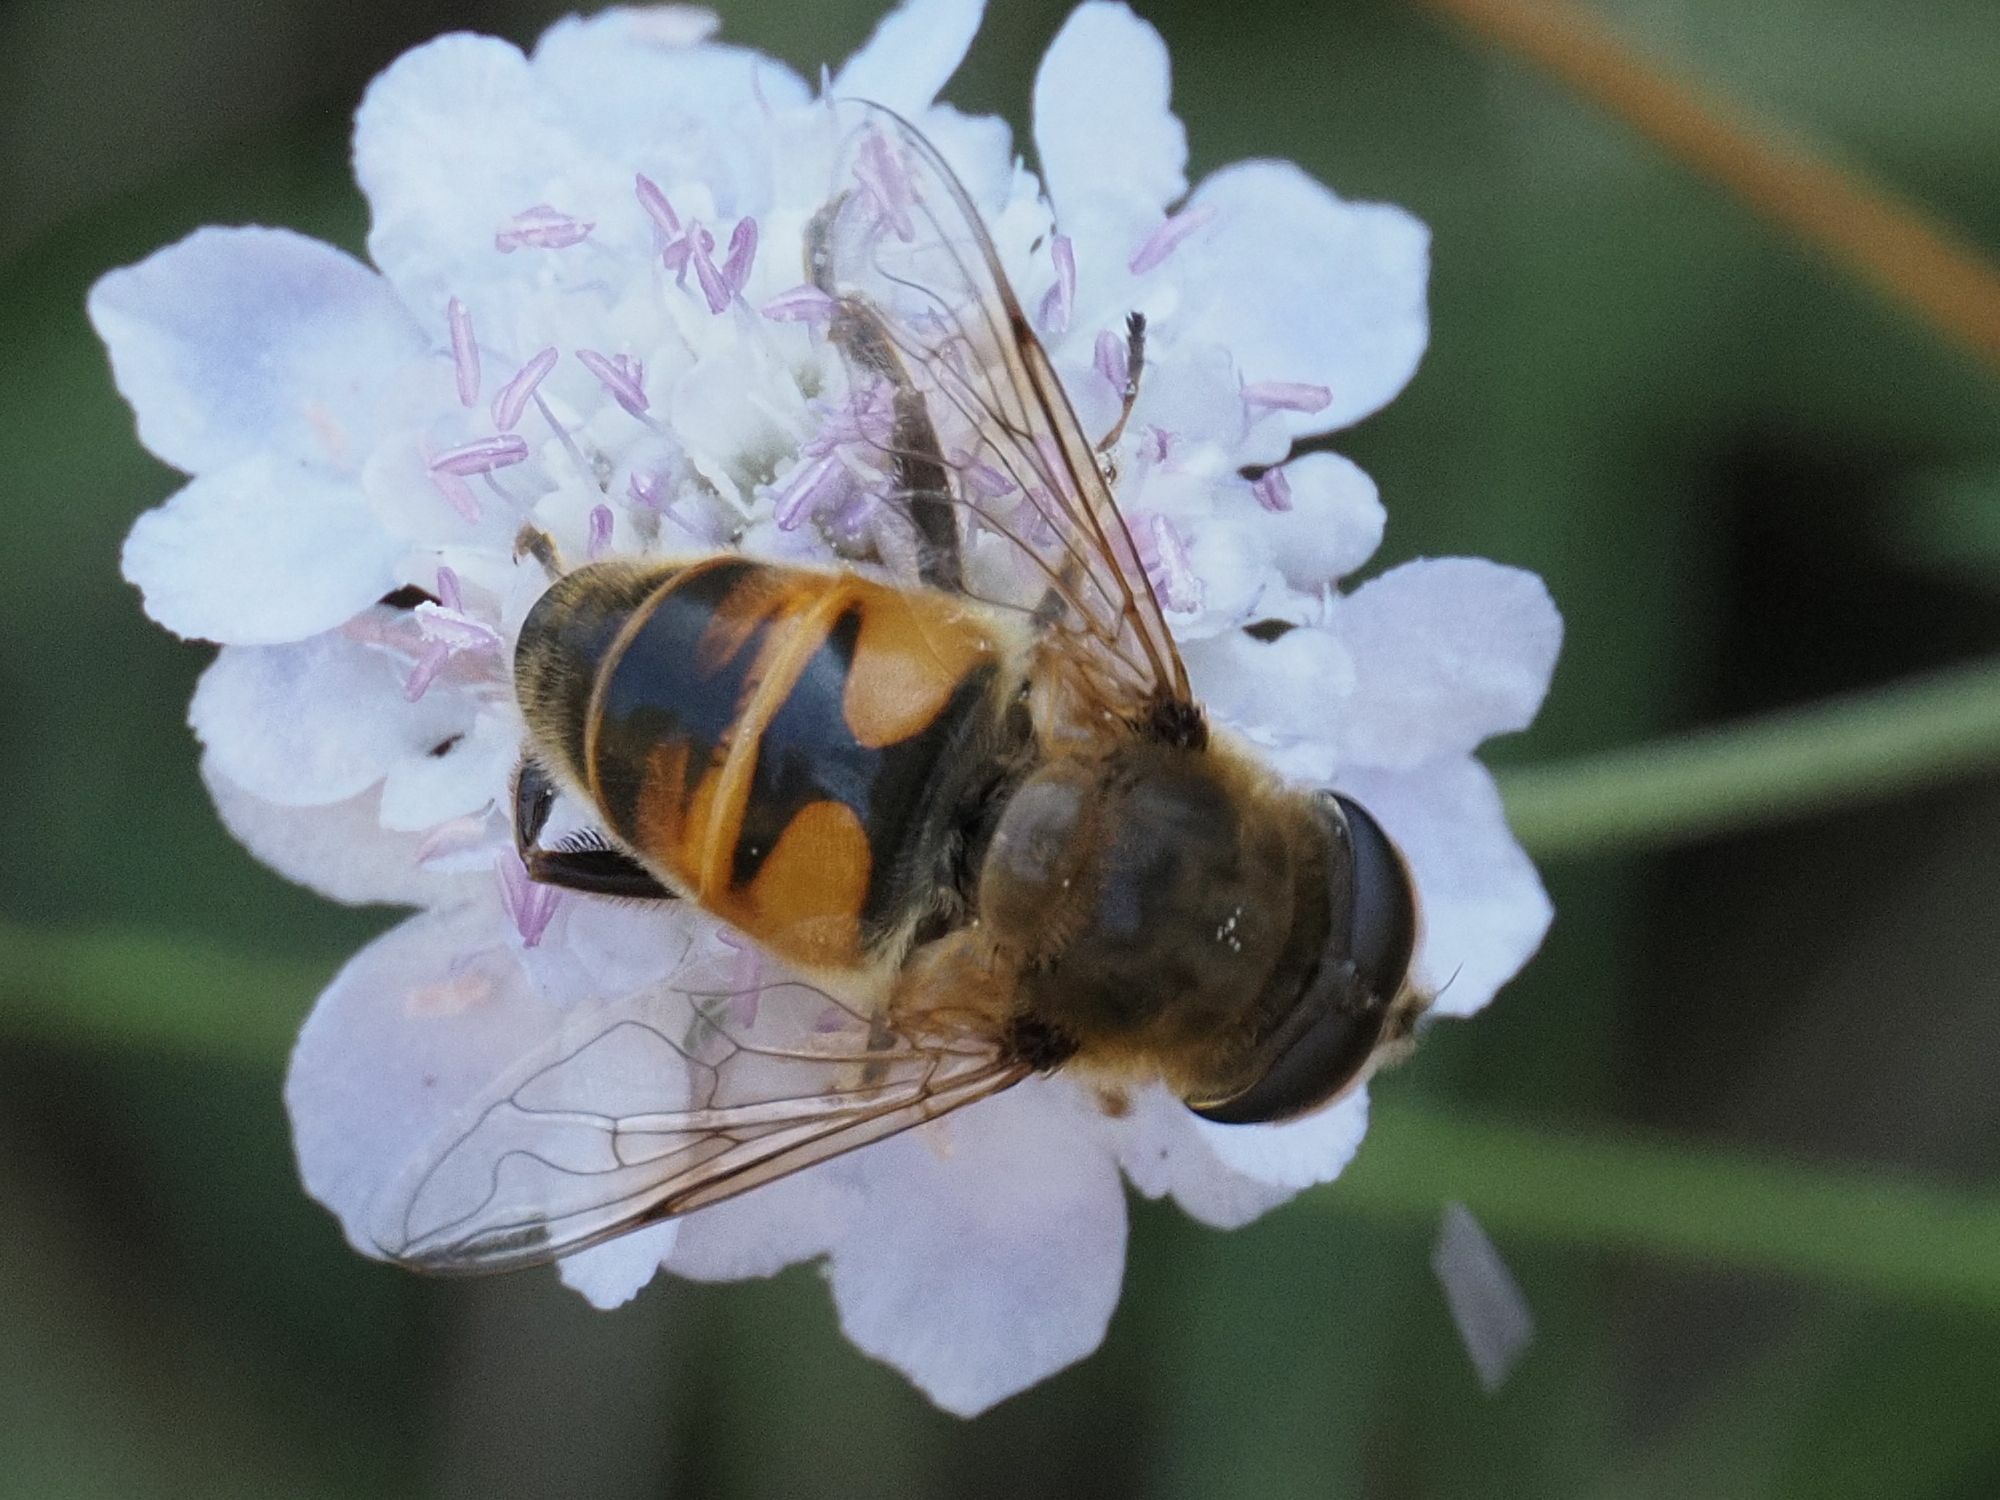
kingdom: Animalia
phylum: Arthropoda
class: Insecta
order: Diptera
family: Syrphidae
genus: Eristalis
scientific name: Eristalis tenax
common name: Drone fly
